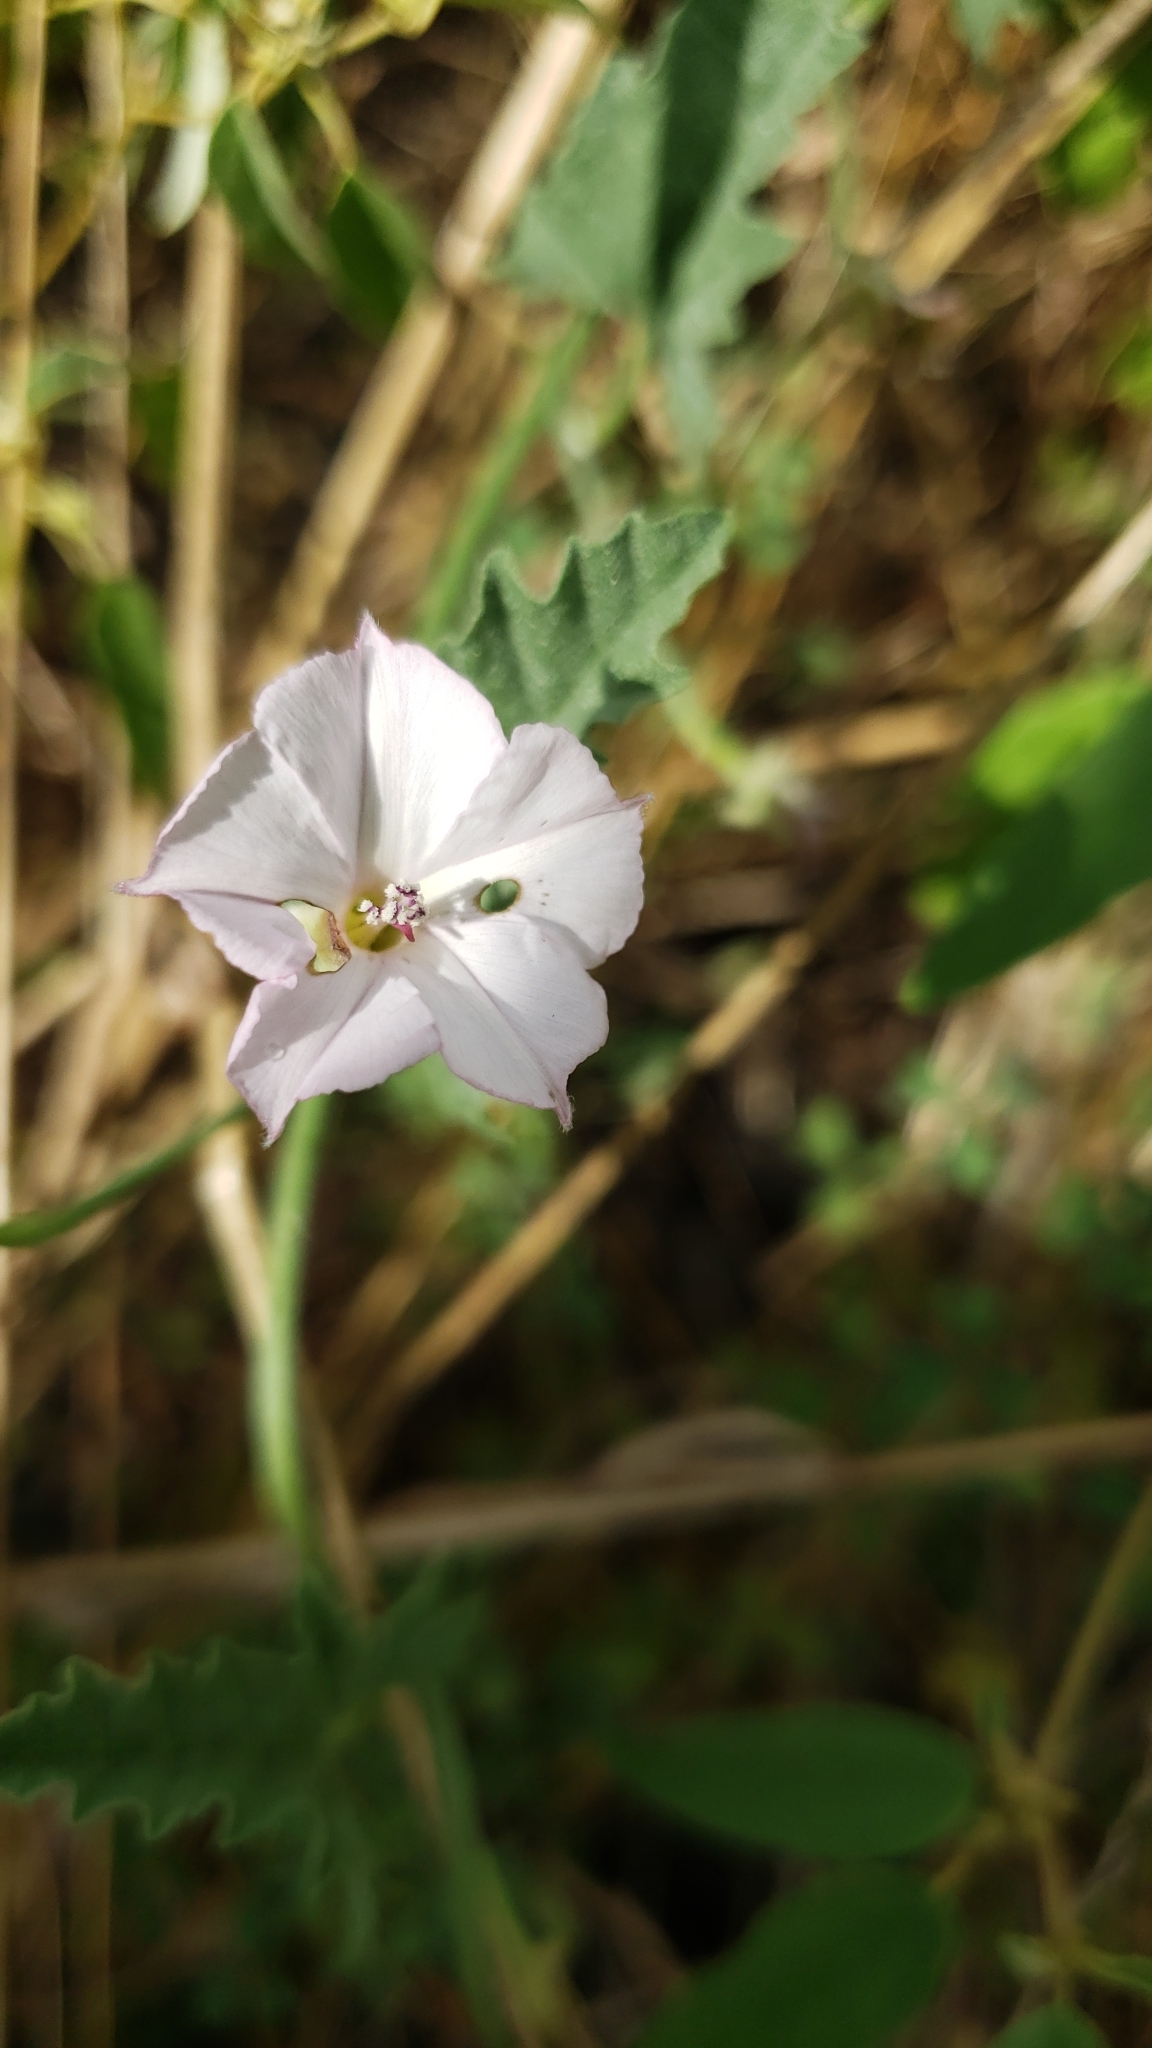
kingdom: Plantae
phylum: Tracheophyta
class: Magnoliopsida
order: Solanales
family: Convolvulaceae
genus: Convolvulus
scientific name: Convolvulus equitans
